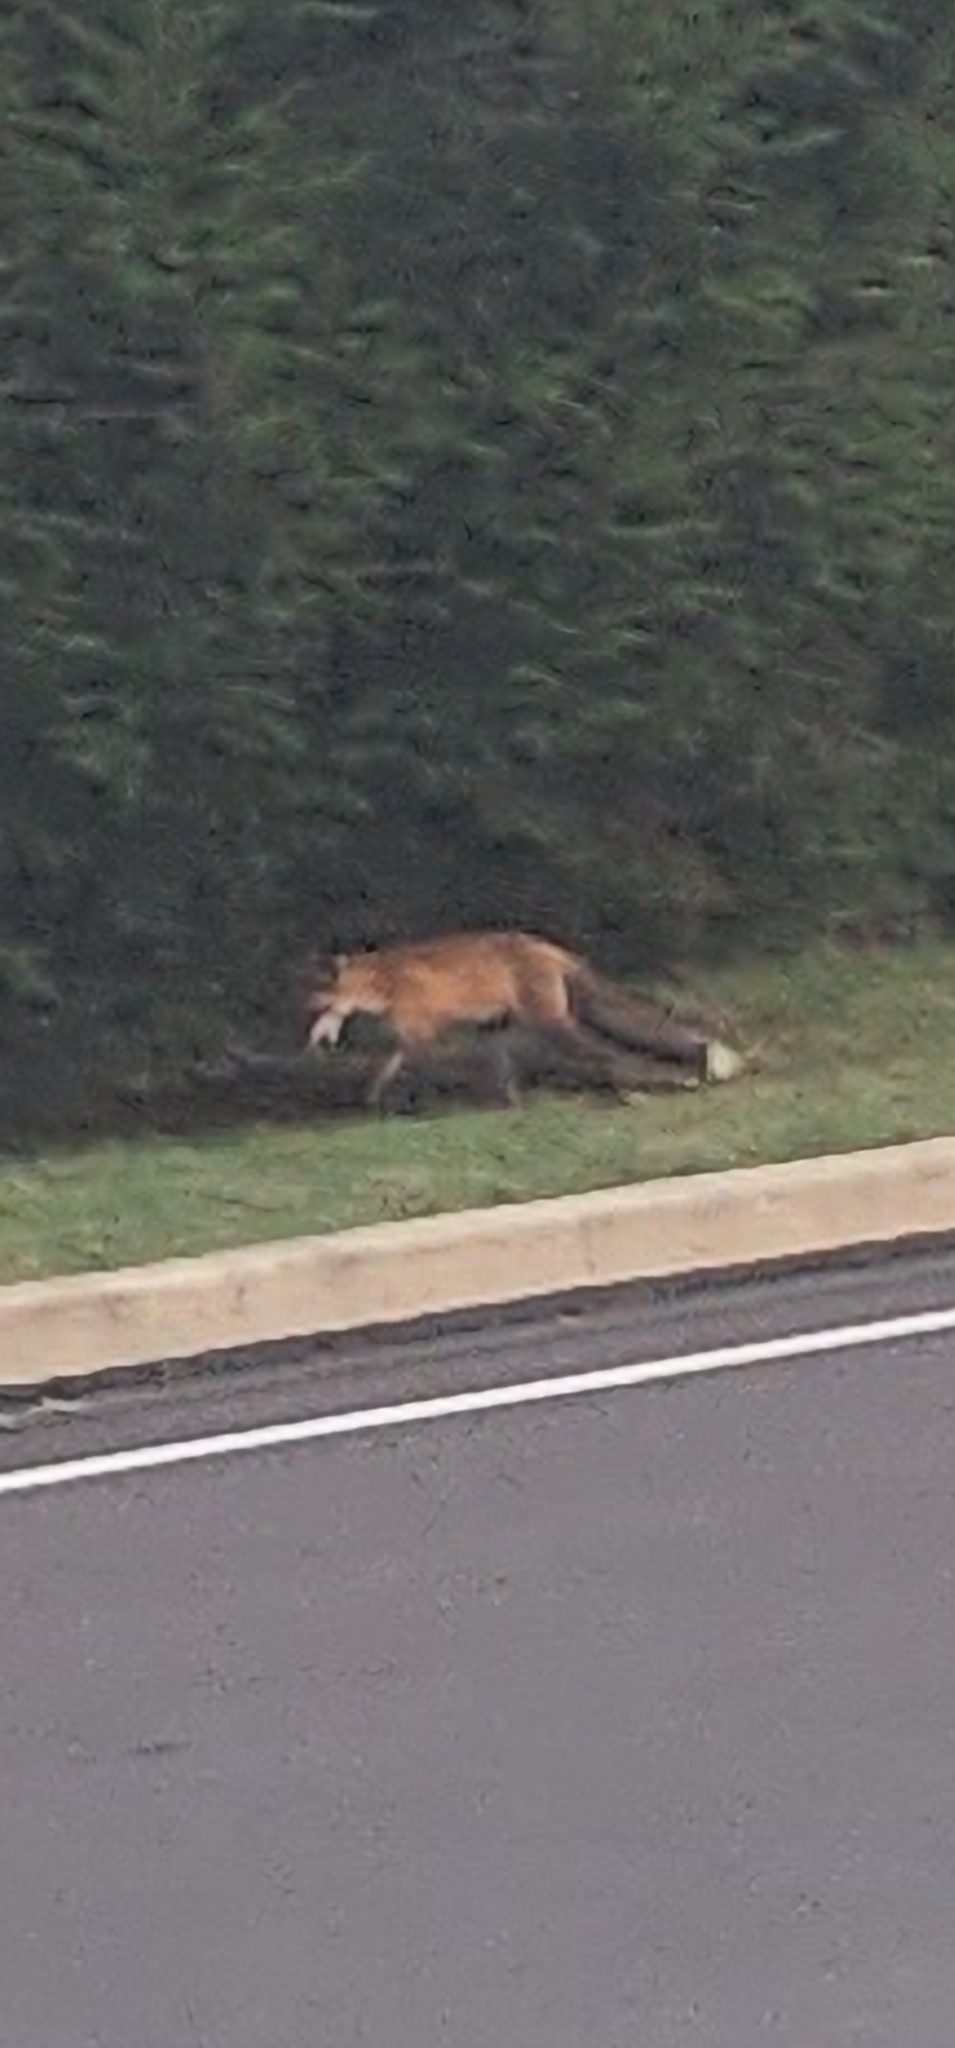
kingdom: Animalia
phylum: Chordata
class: Mammalia
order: Carnivora
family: Canidae
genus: Vulpes
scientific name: Vulpes vulpes
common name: Red fox
